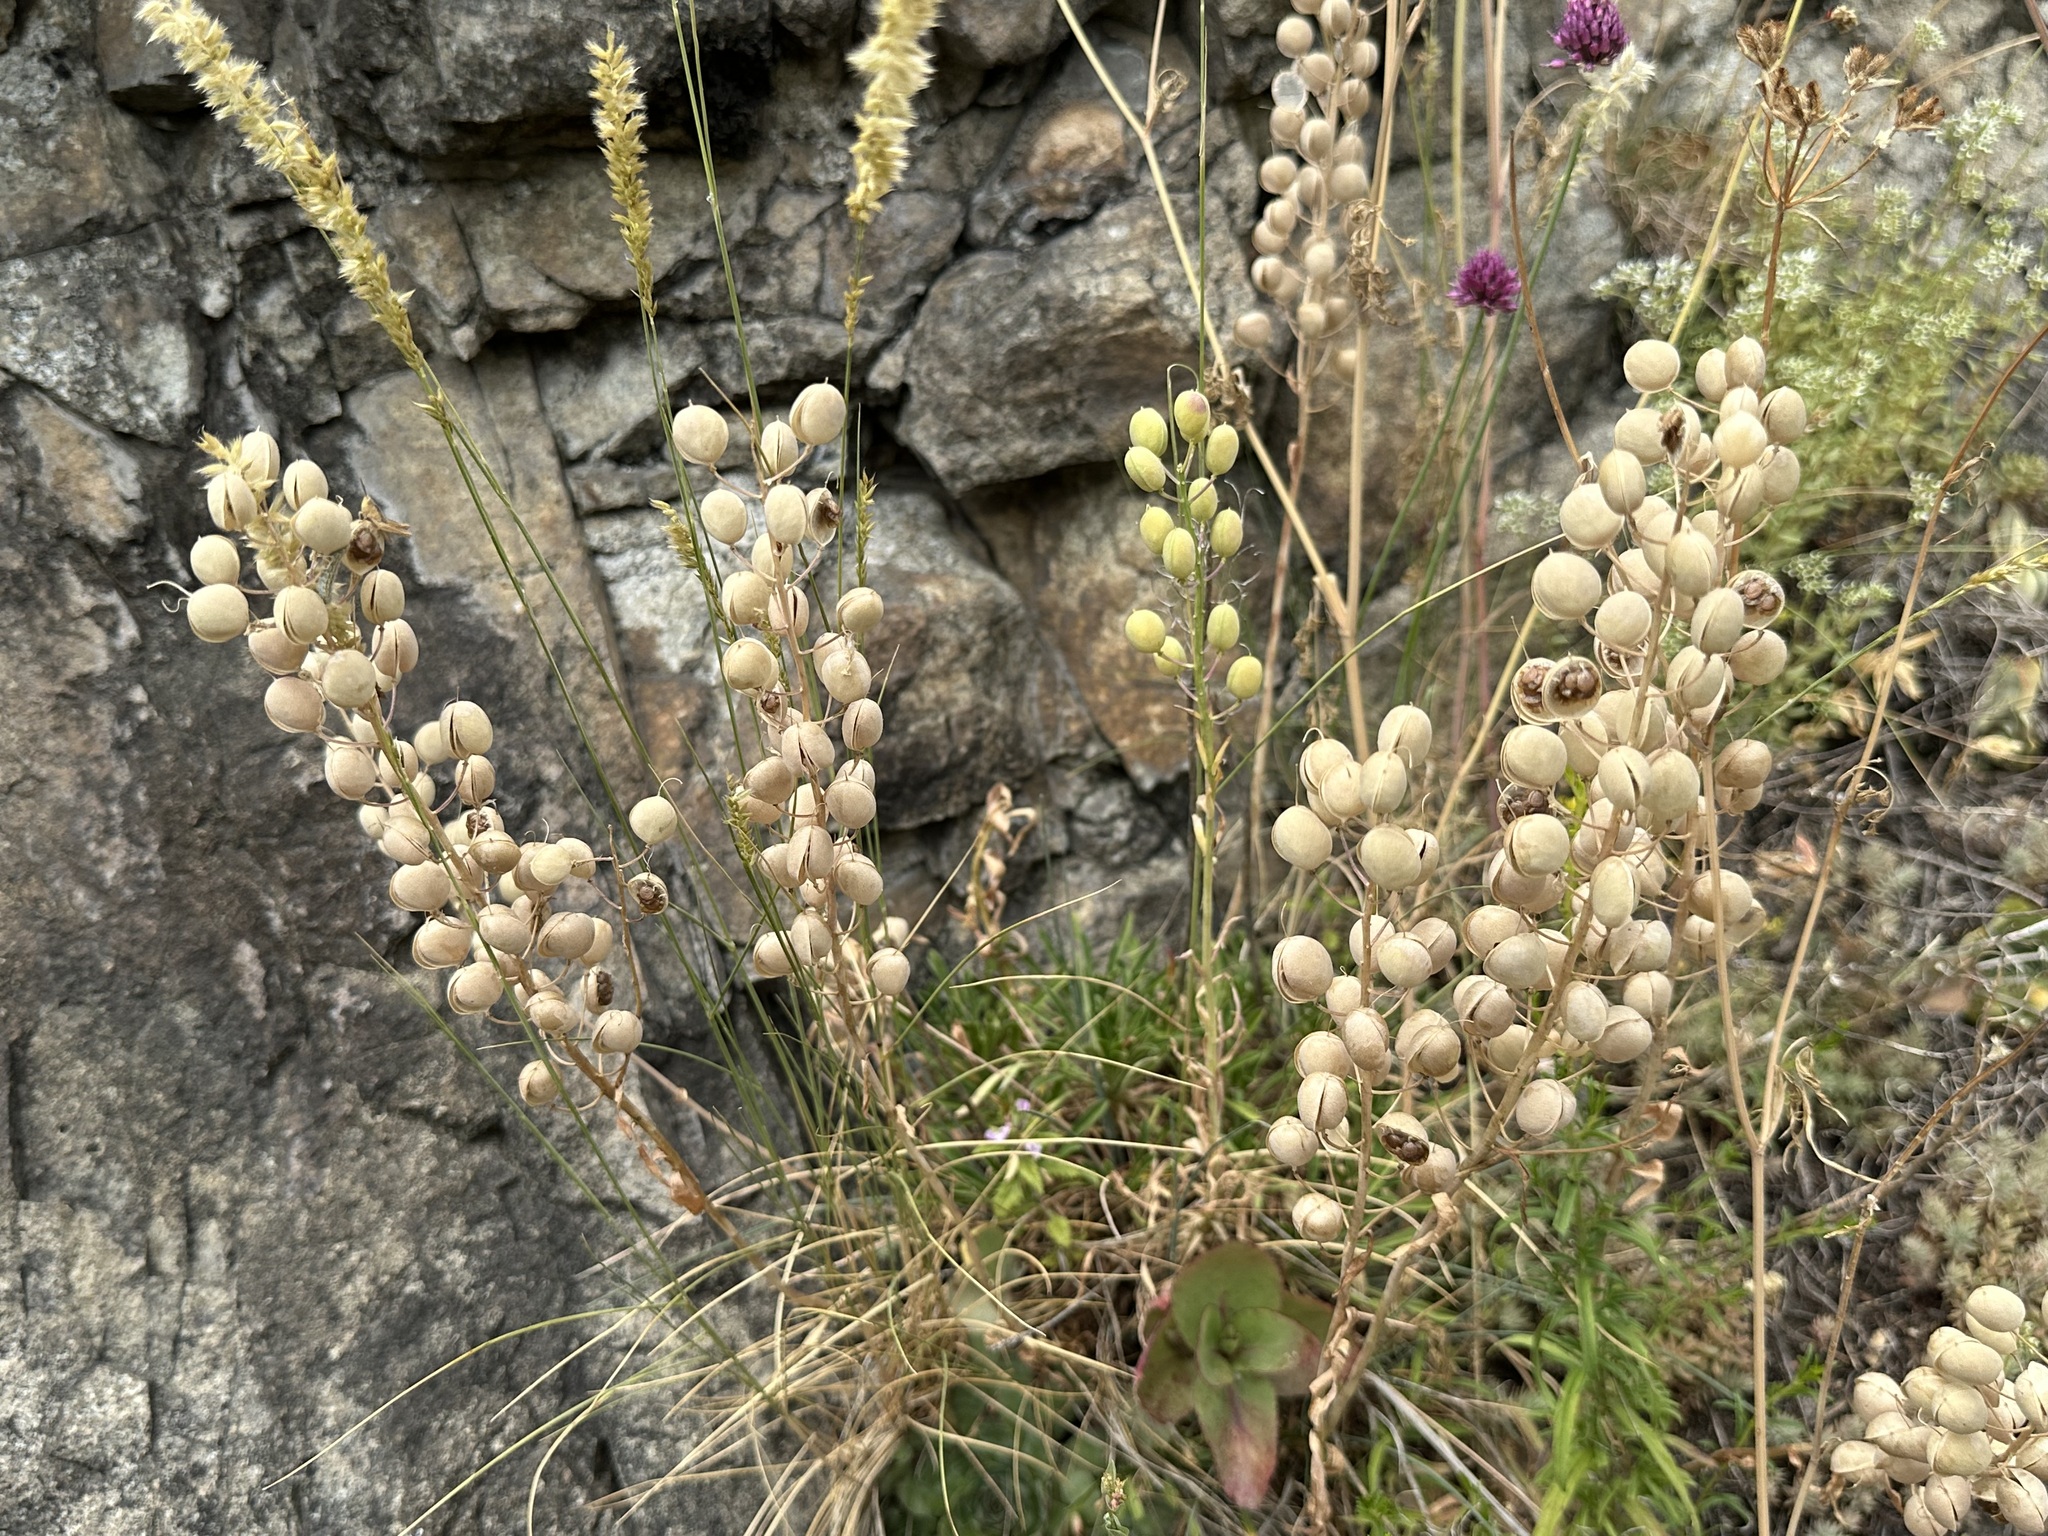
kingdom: Plantae
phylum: Tracheophyta
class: Magnoliopsida
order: Brassicales
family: Brassicaceae
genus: Alyssoides
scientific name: Alyssoides utriculata
